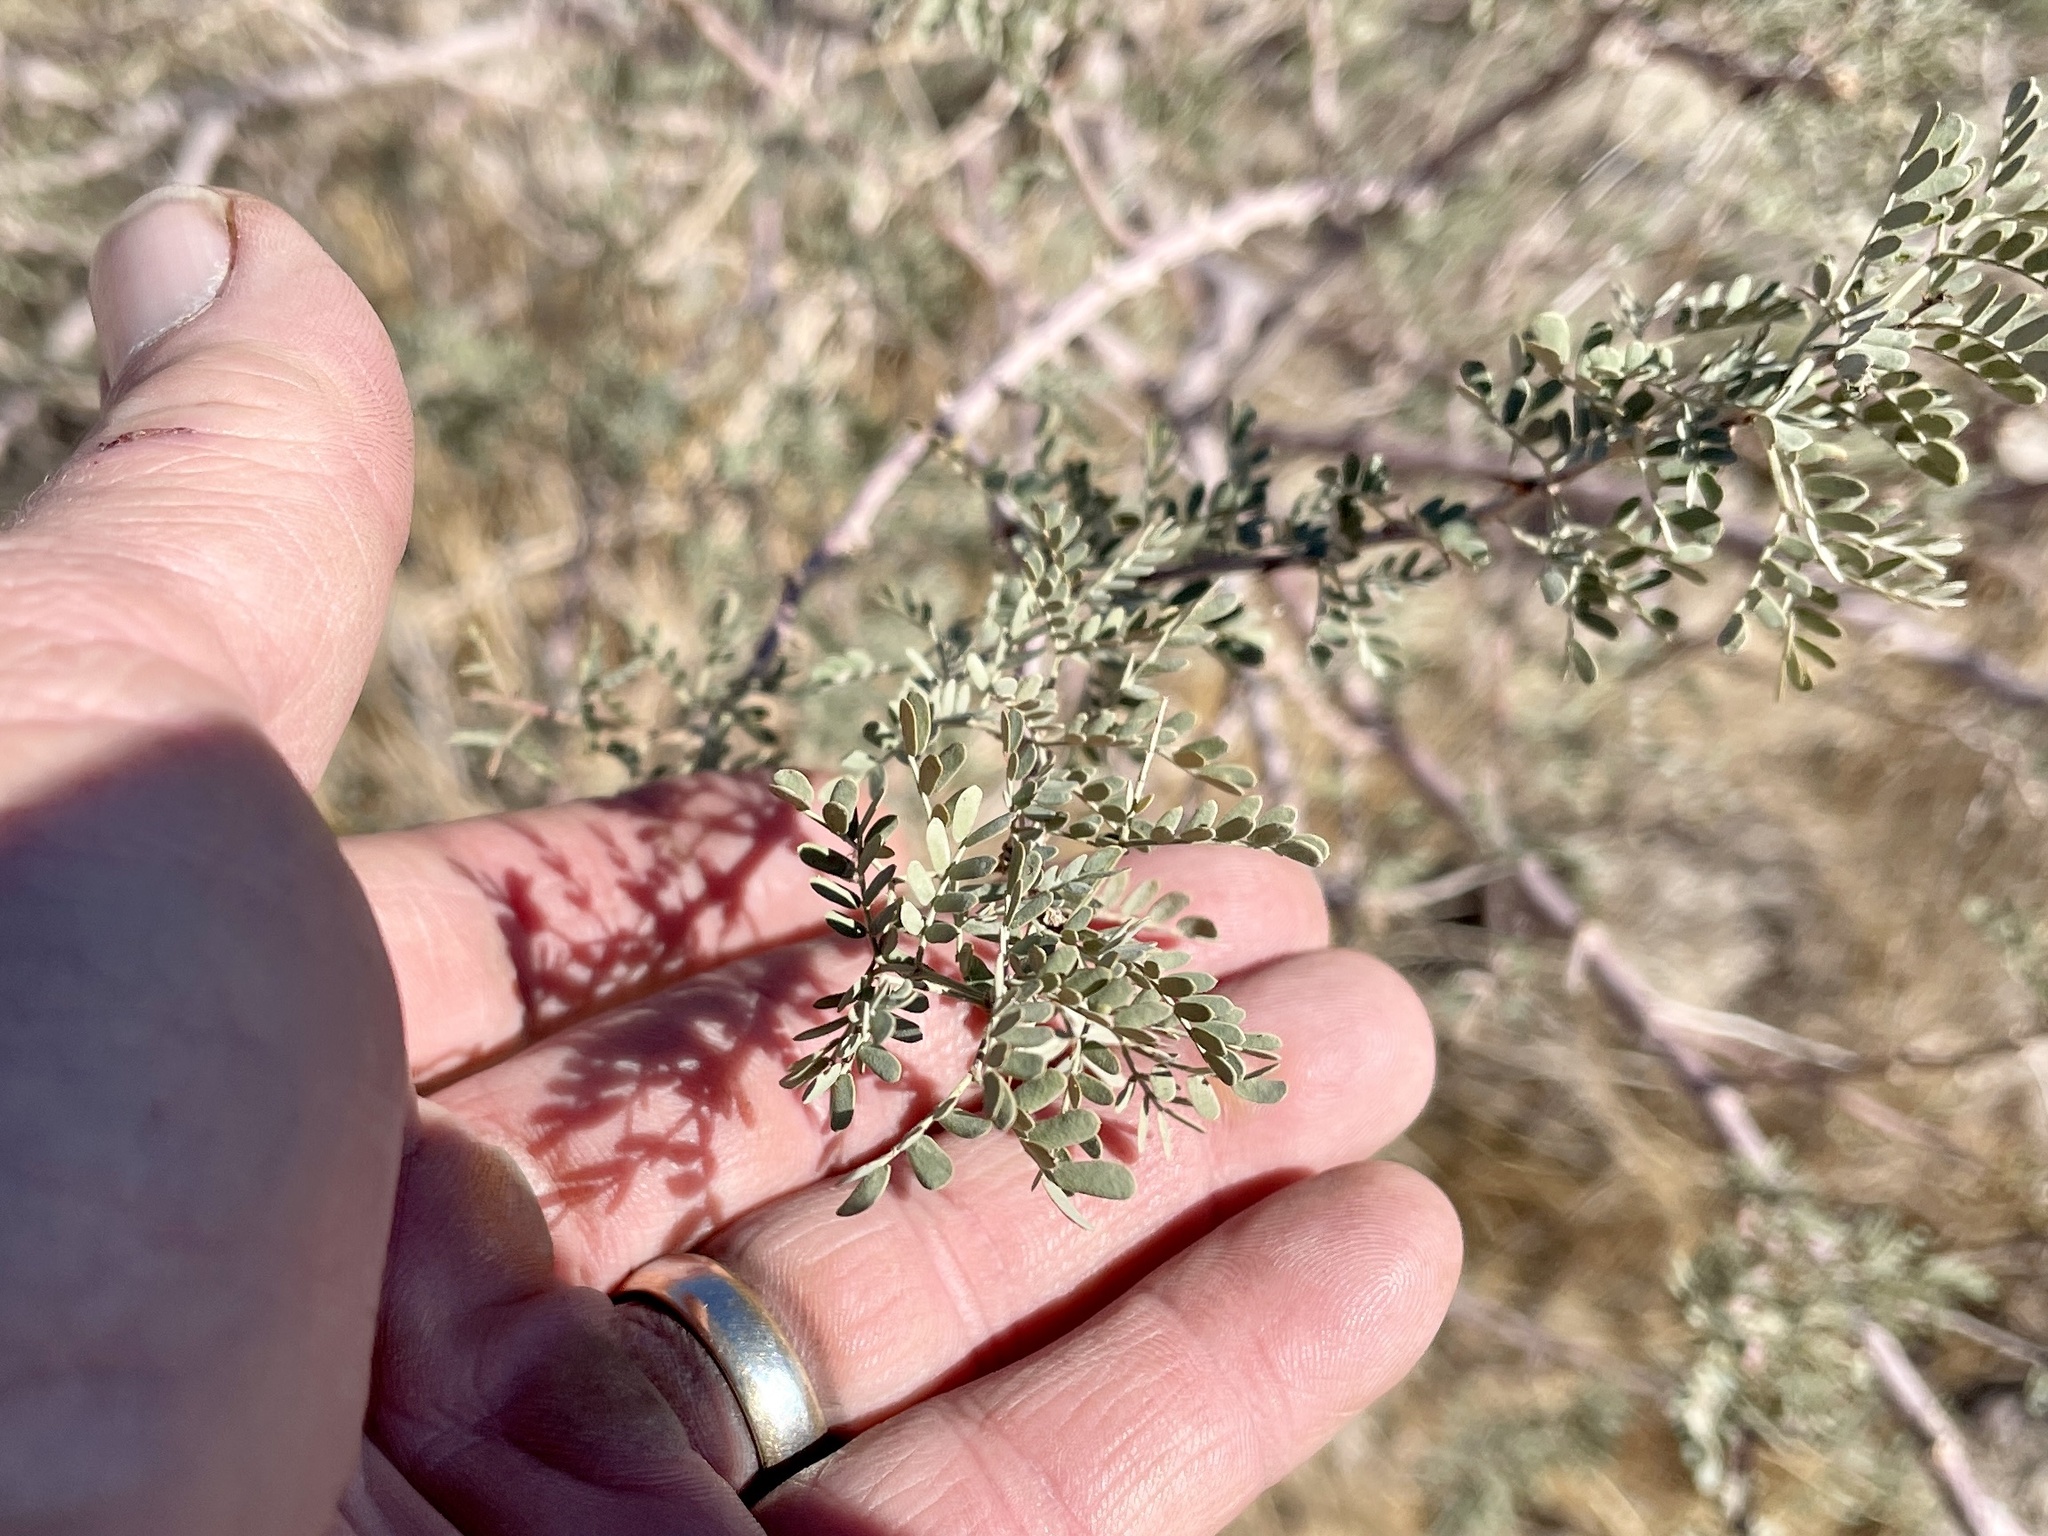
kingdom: Plantae
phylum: Tracheophyta
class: Magnoliopsida
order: Fabales
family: Fabaceae
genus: Senegalia
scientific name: Senegalia greggii
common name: Texas-mimosa
